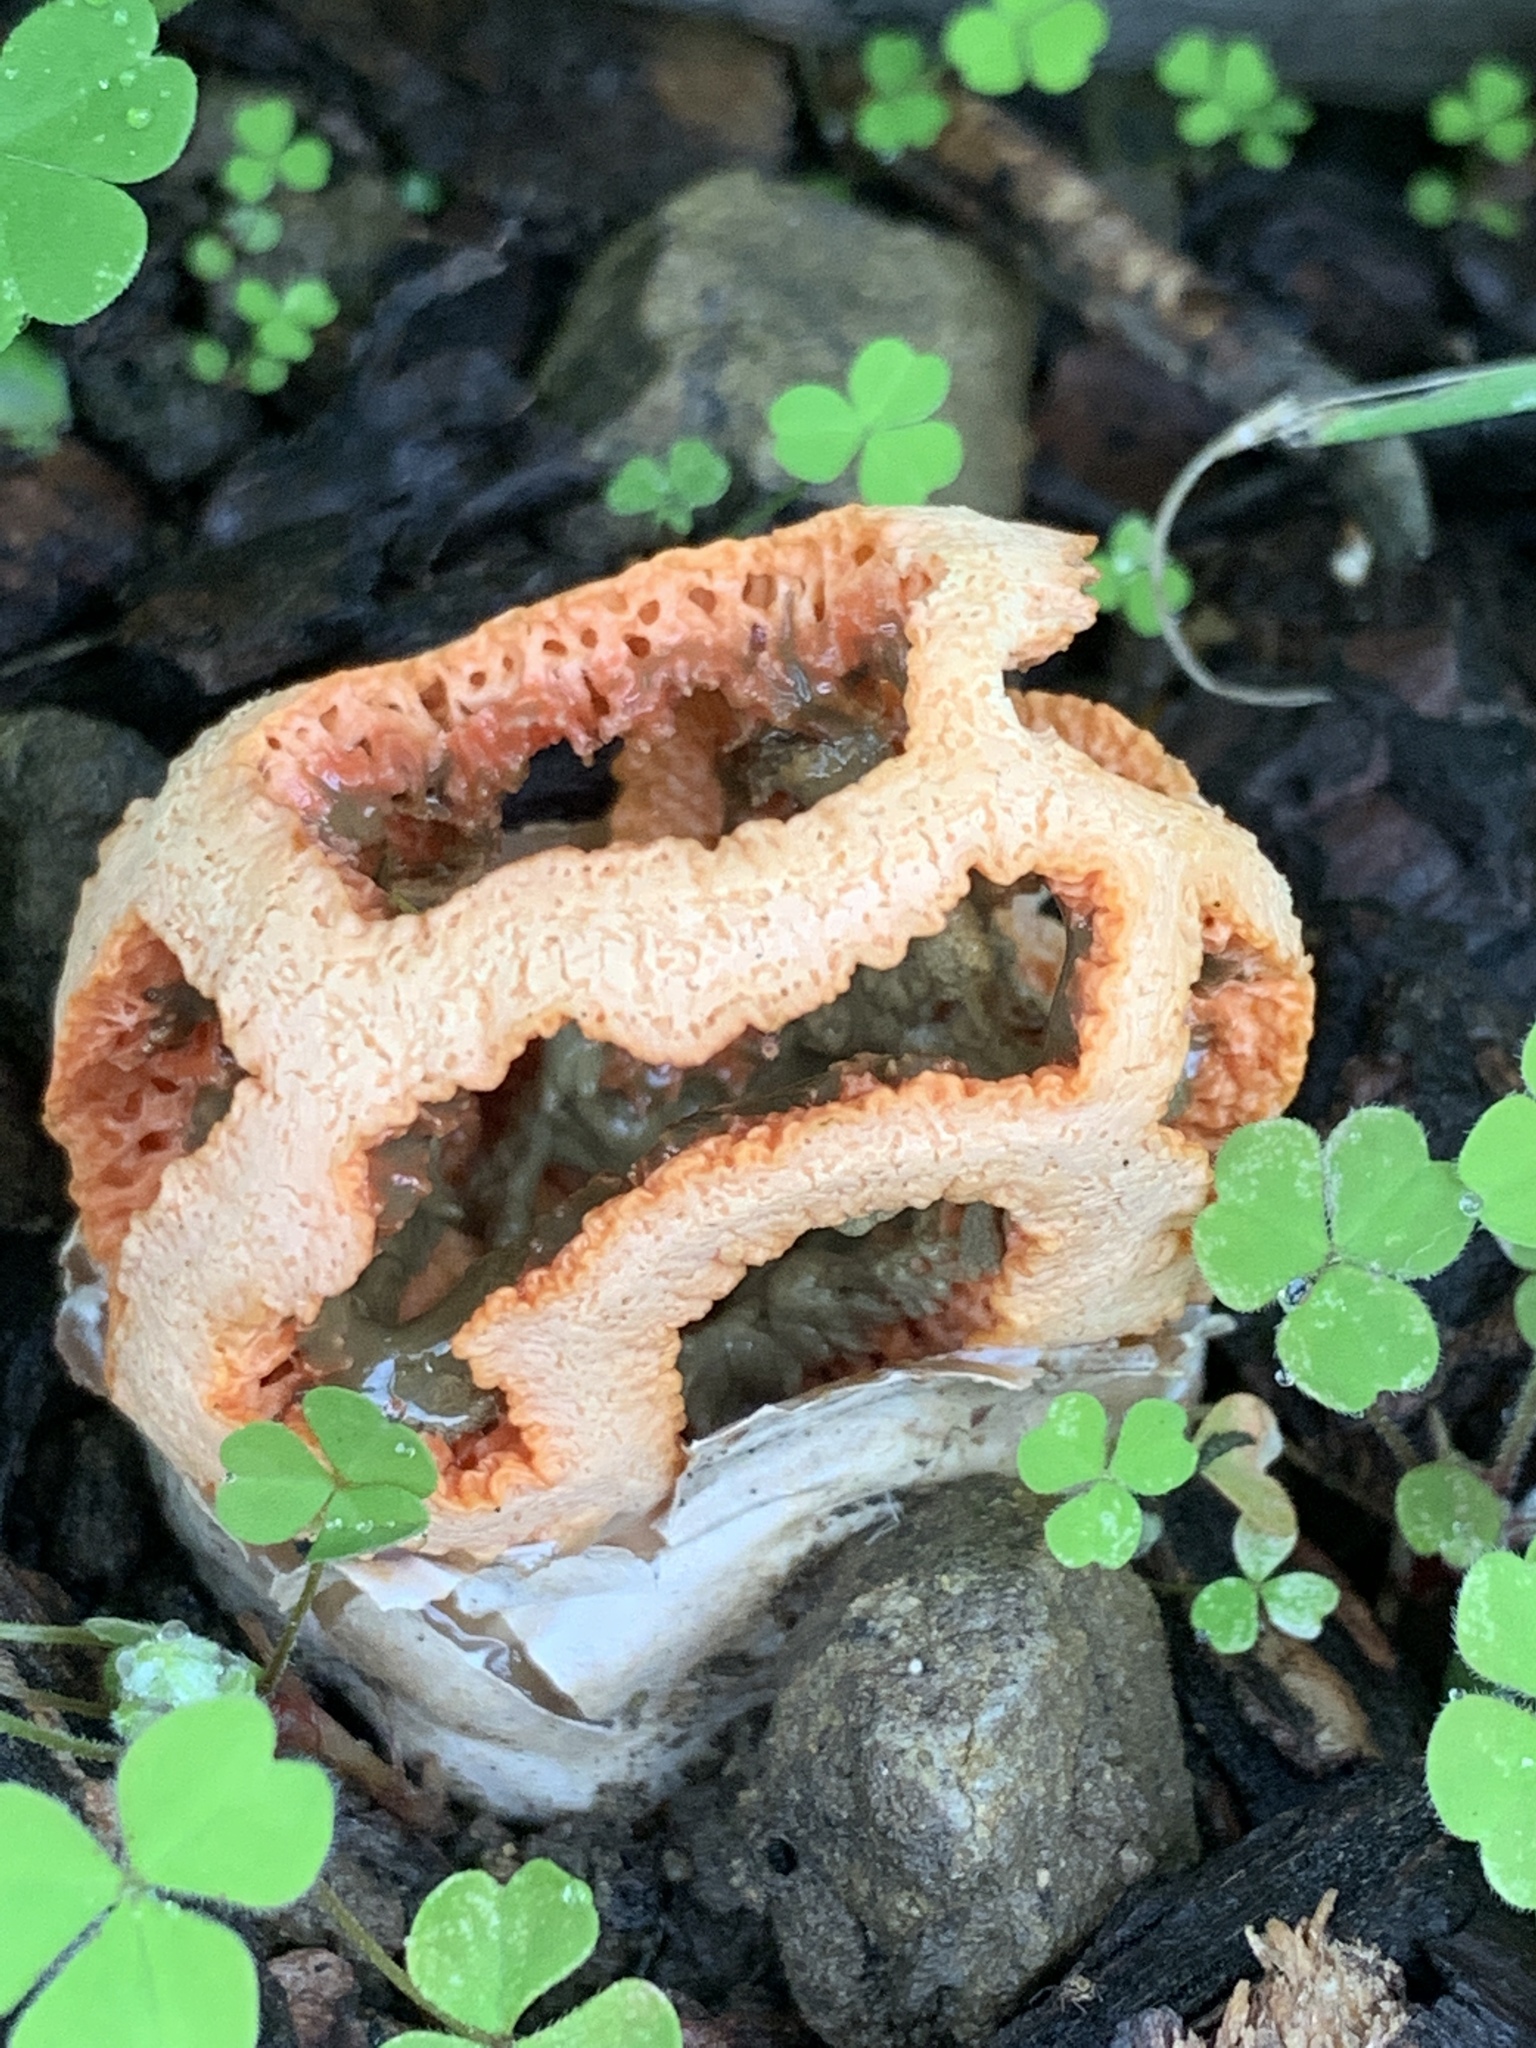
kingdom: Fungi
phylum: Basidiomycota
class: Agaricomycetes
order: Phallales
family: Phallaceae
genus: Clathrus
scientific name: Clathrus ruber
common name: Red cage
